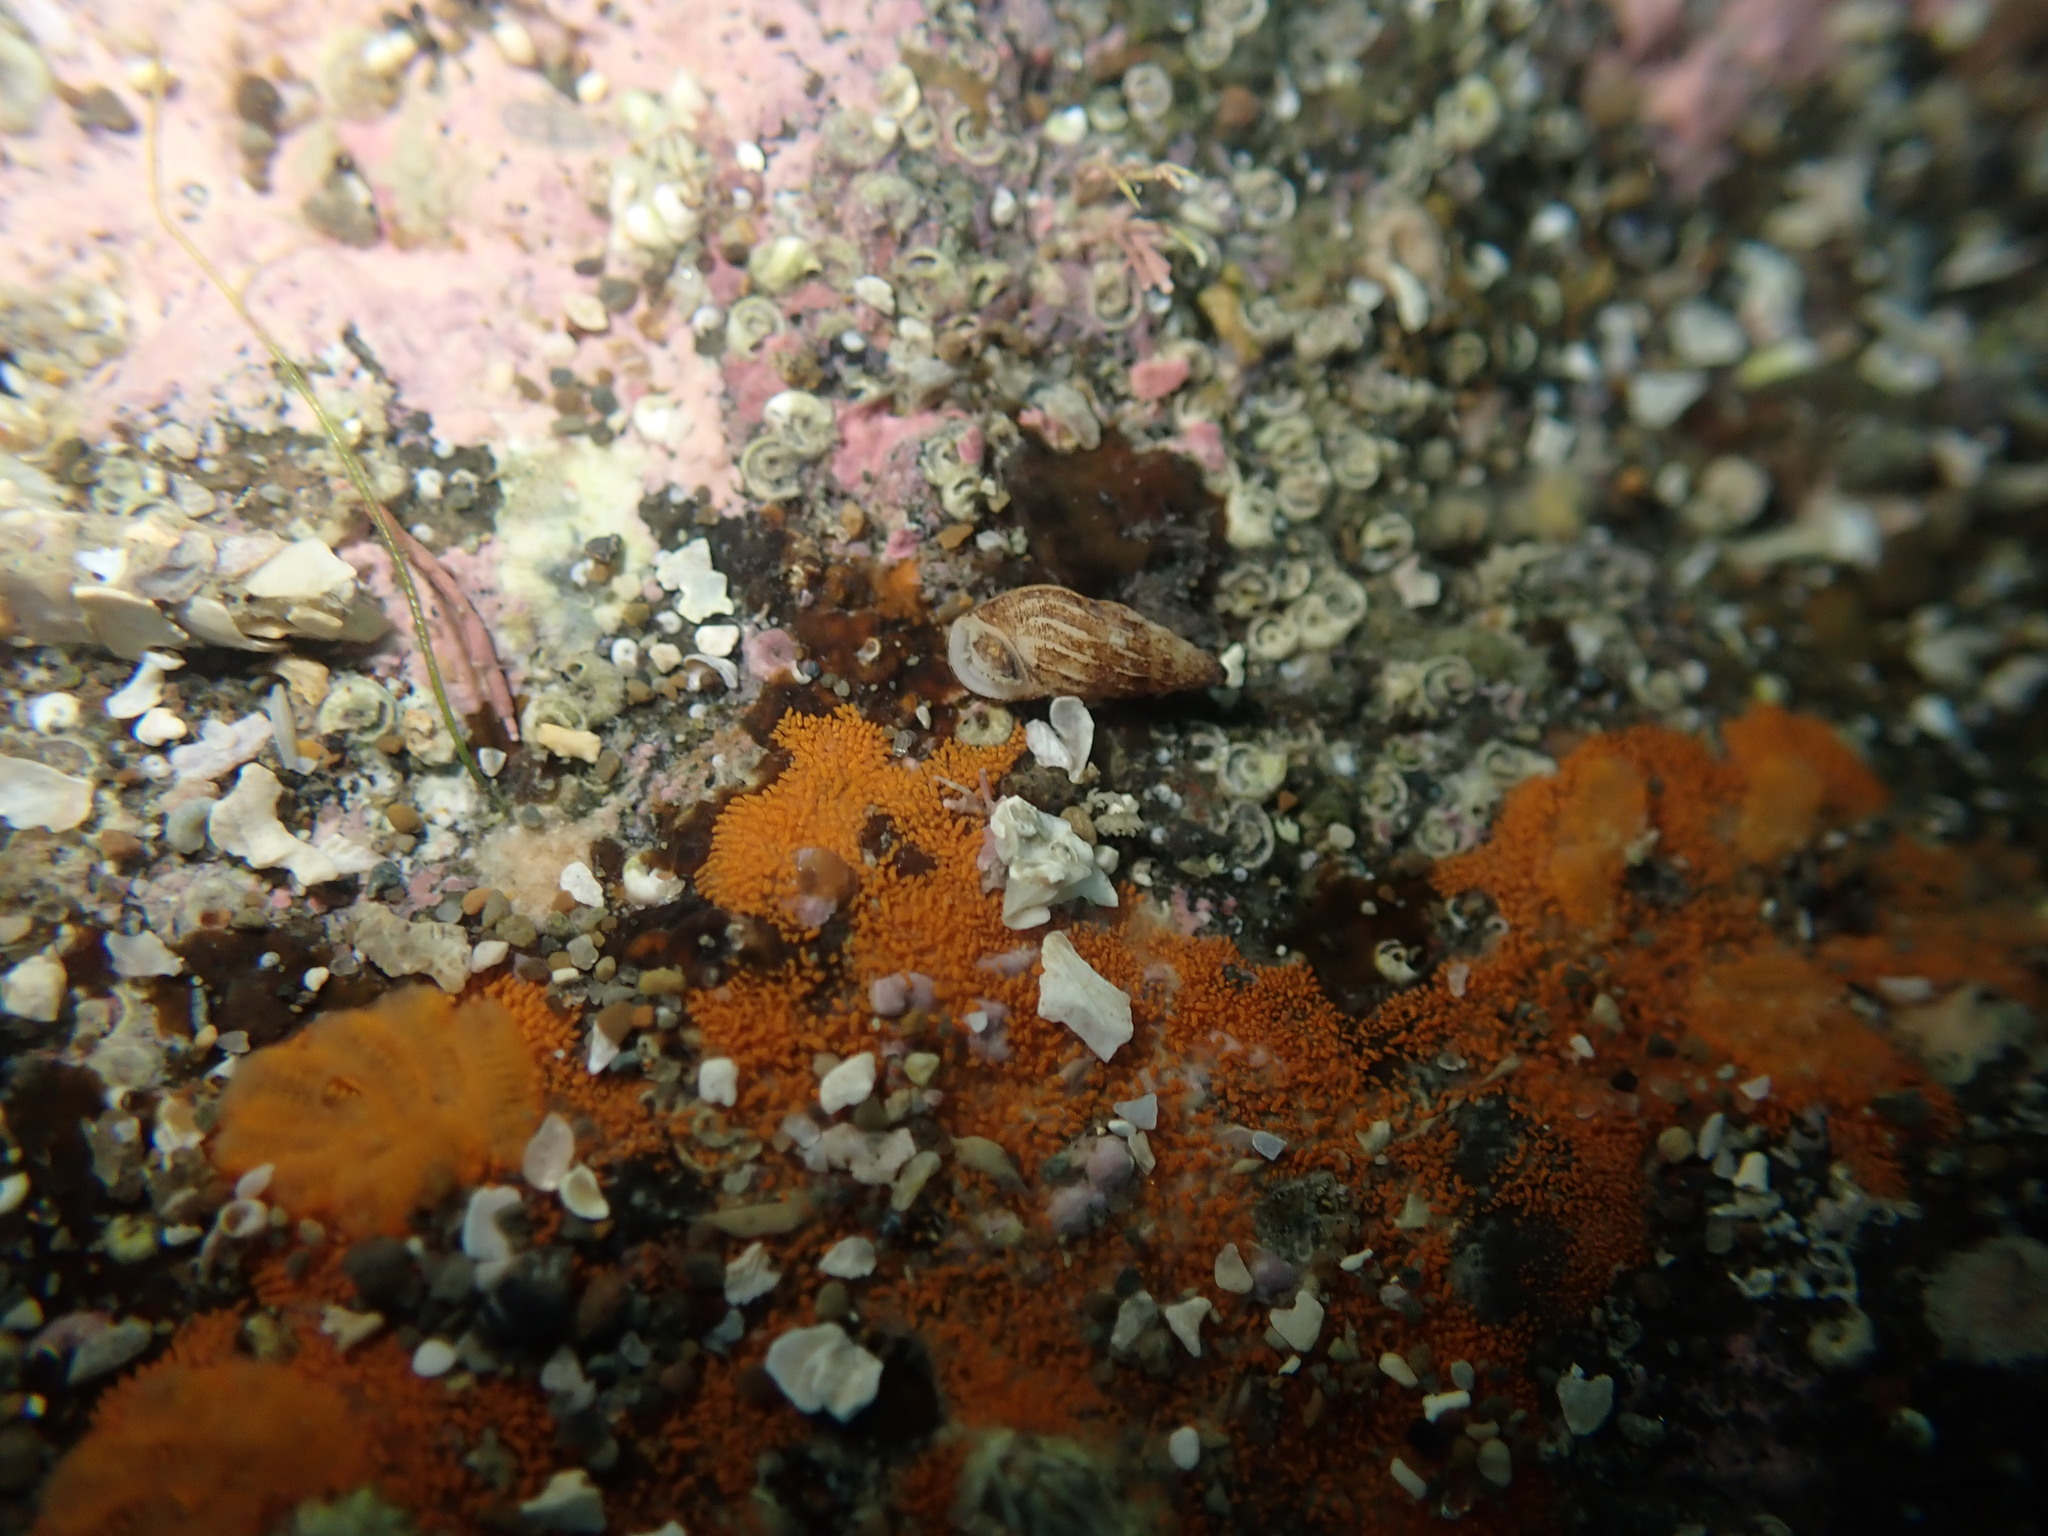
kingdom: Animalia
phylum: Mollusca
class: Gastropoda
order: Littorinimorpha
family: Rissoinidae
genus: Rissoina
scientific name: Rissoina
